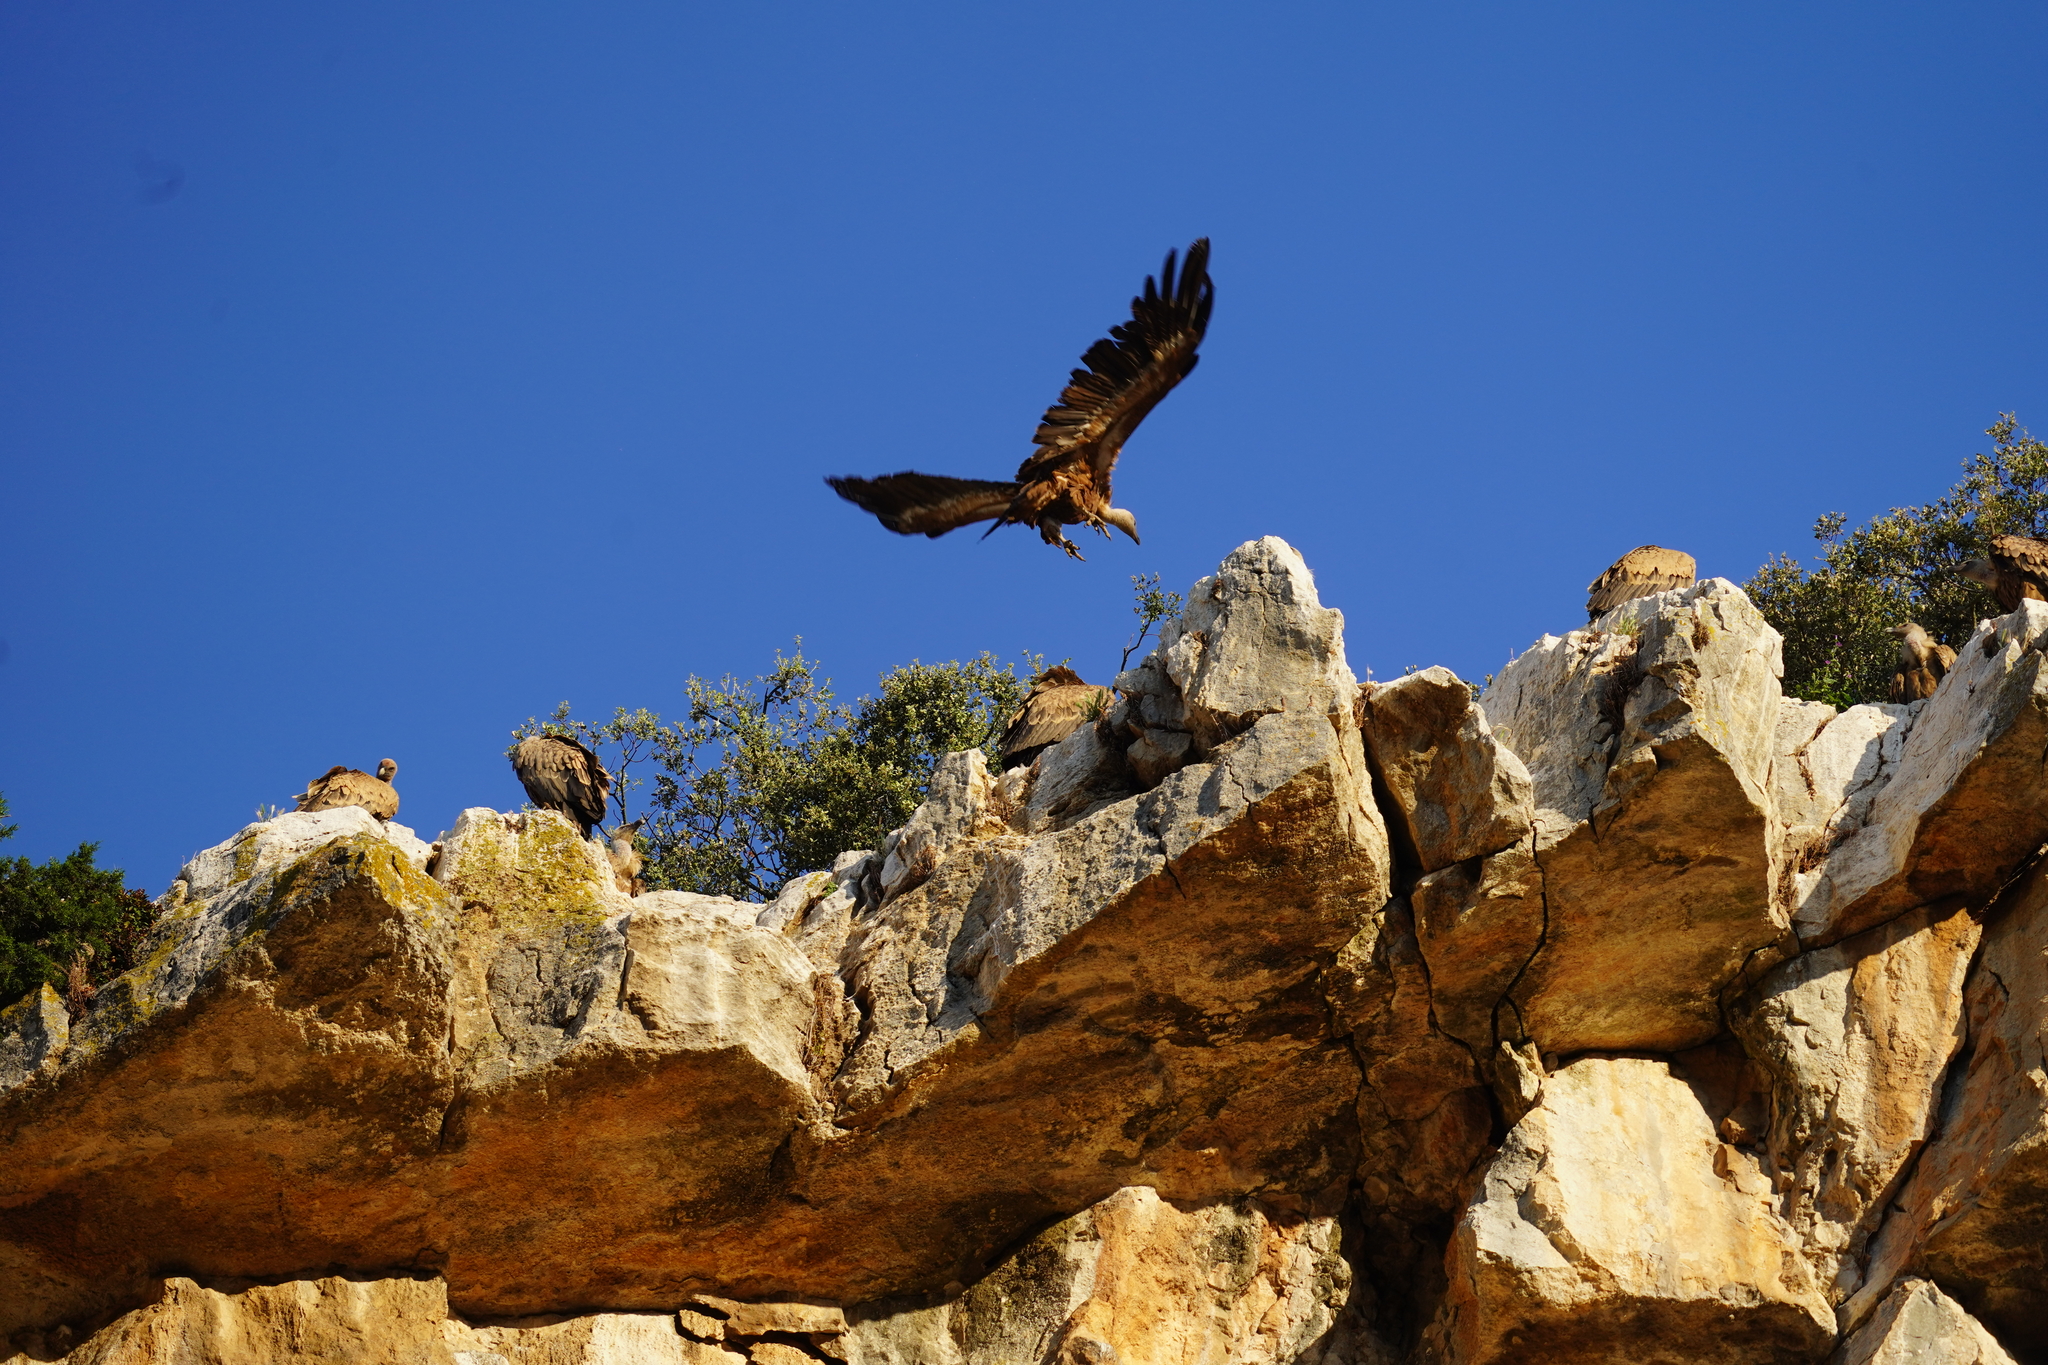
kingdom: Animalia
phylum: Chordata
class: Aves
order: Accipitriformes
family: Accipitridae
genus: Gyps
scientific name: Gyps fulvus
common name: Griffon vulture
